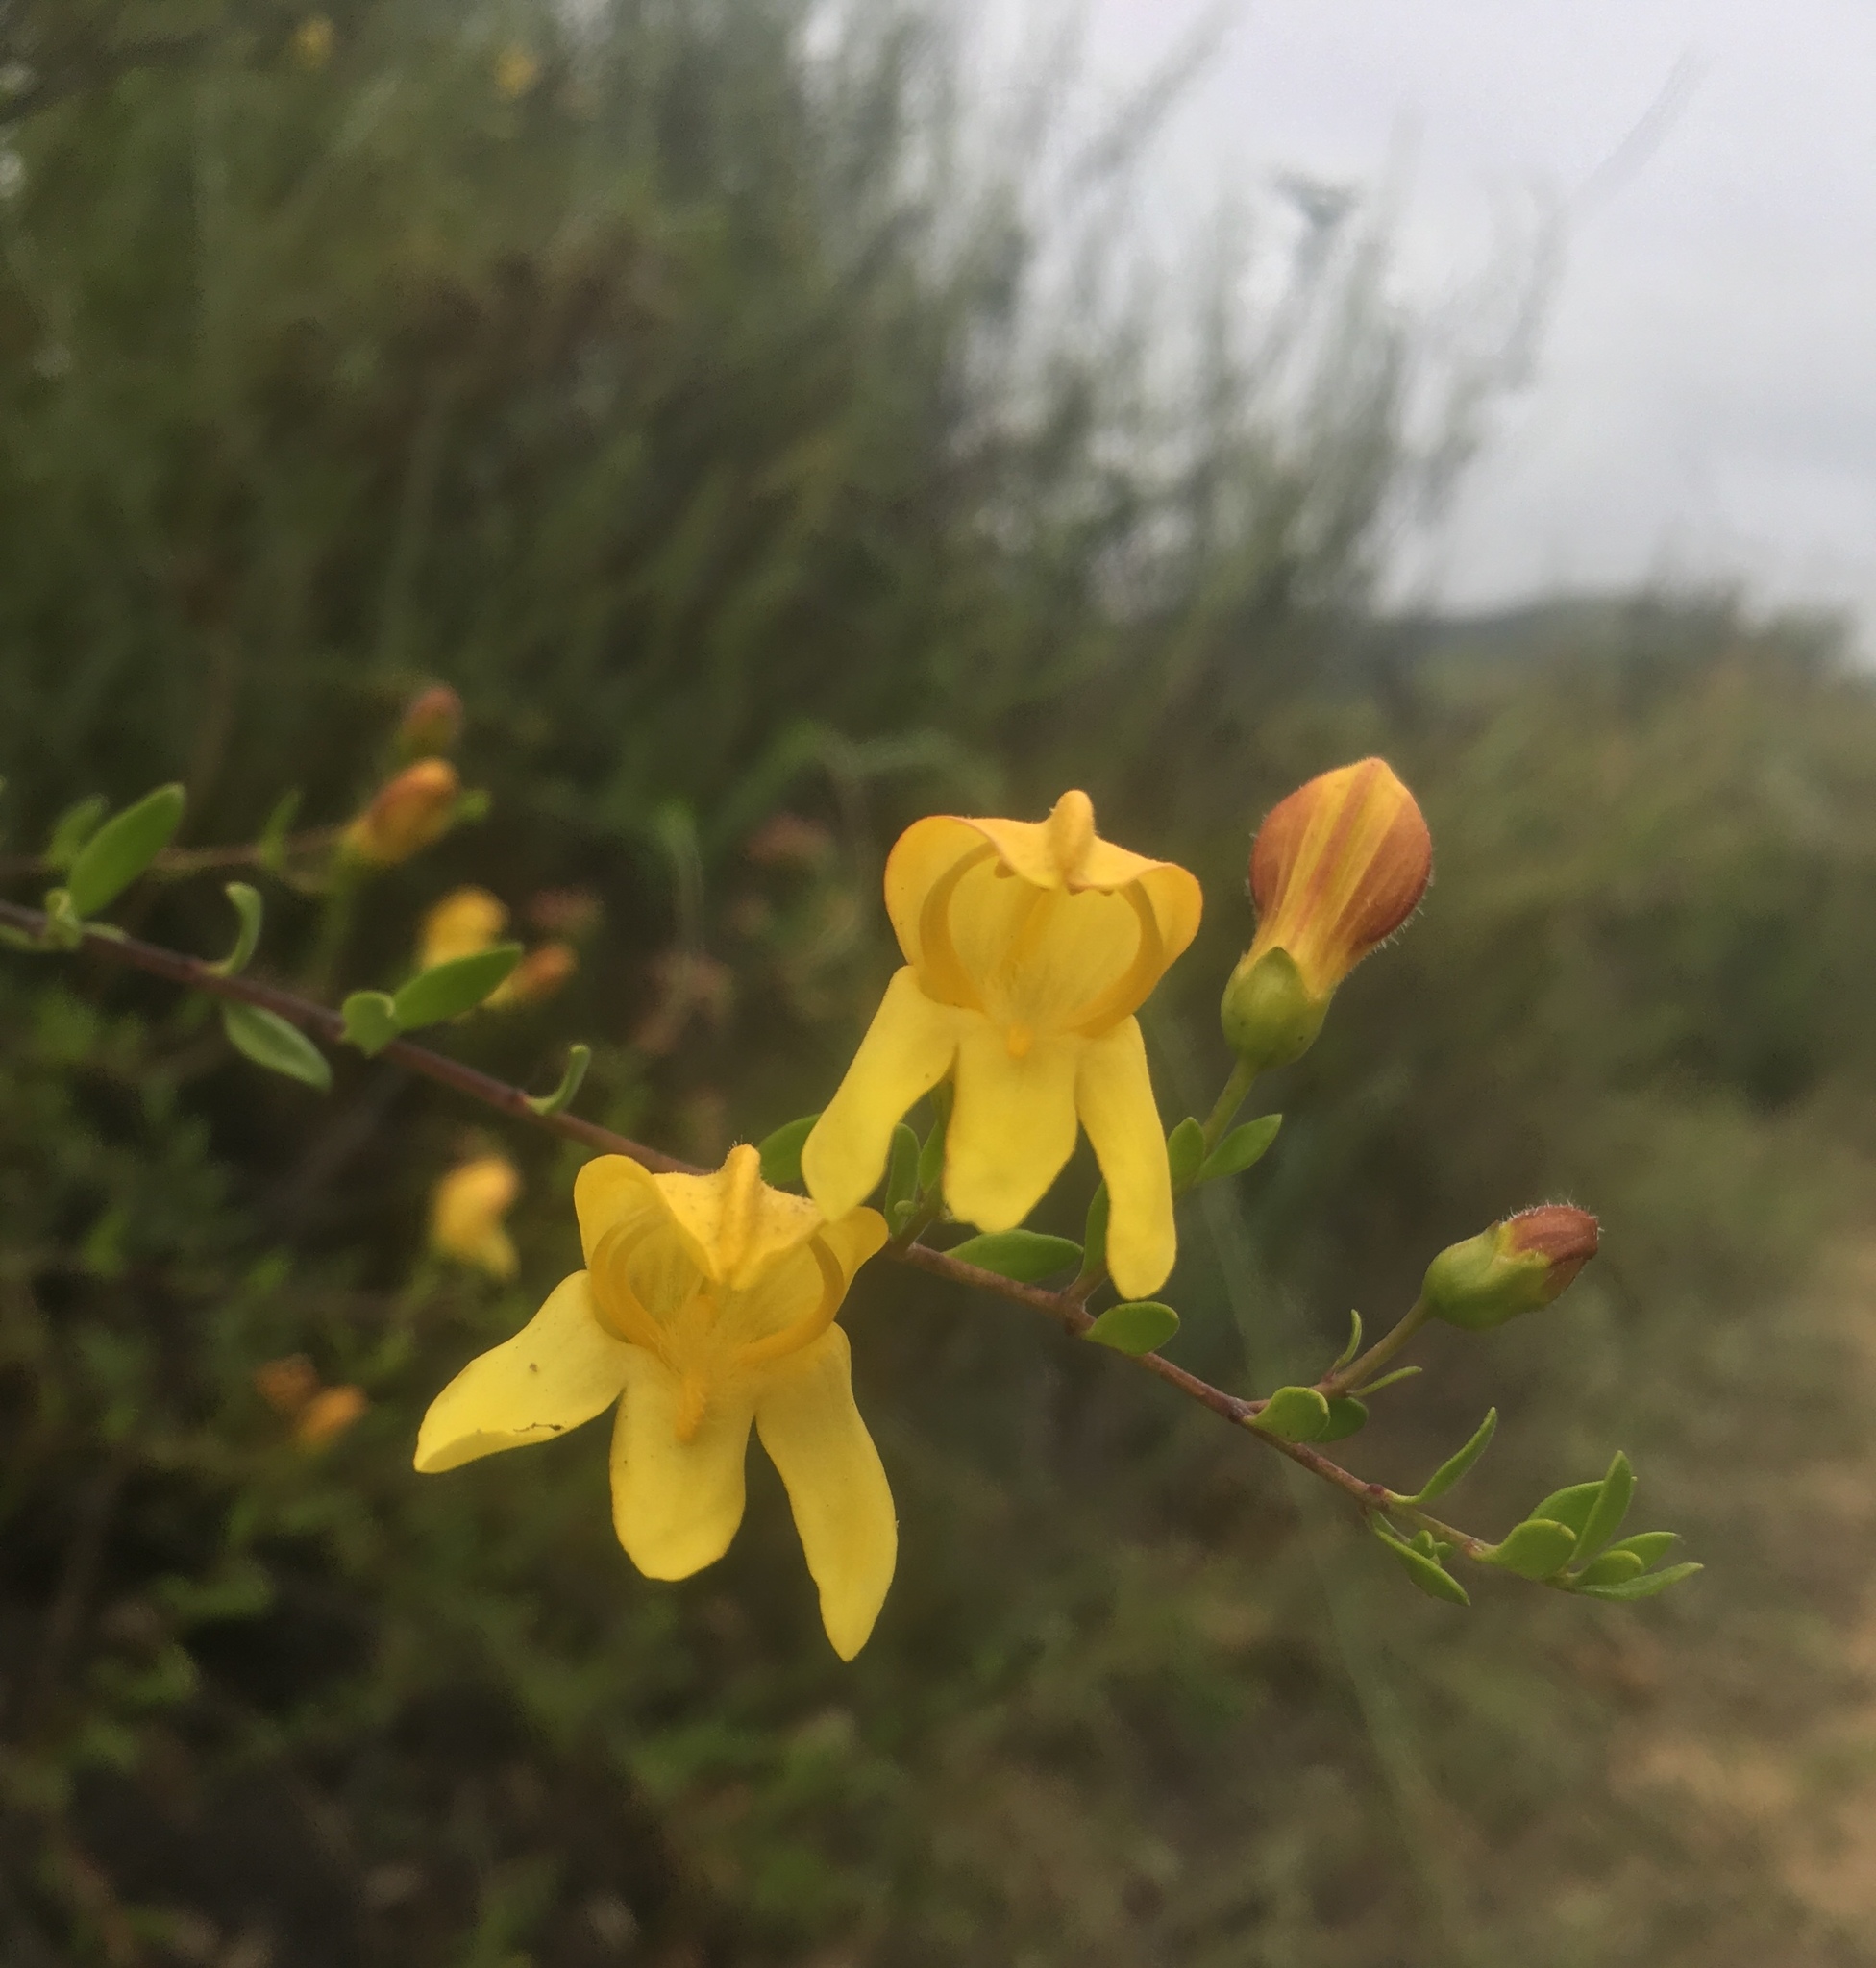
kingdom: Plantae
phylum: Tracheophyta
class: Magnoliopsida
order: Lamiales
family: Plantaginaceae
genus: Keckiella
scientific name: Keckiella antirrhinoides
